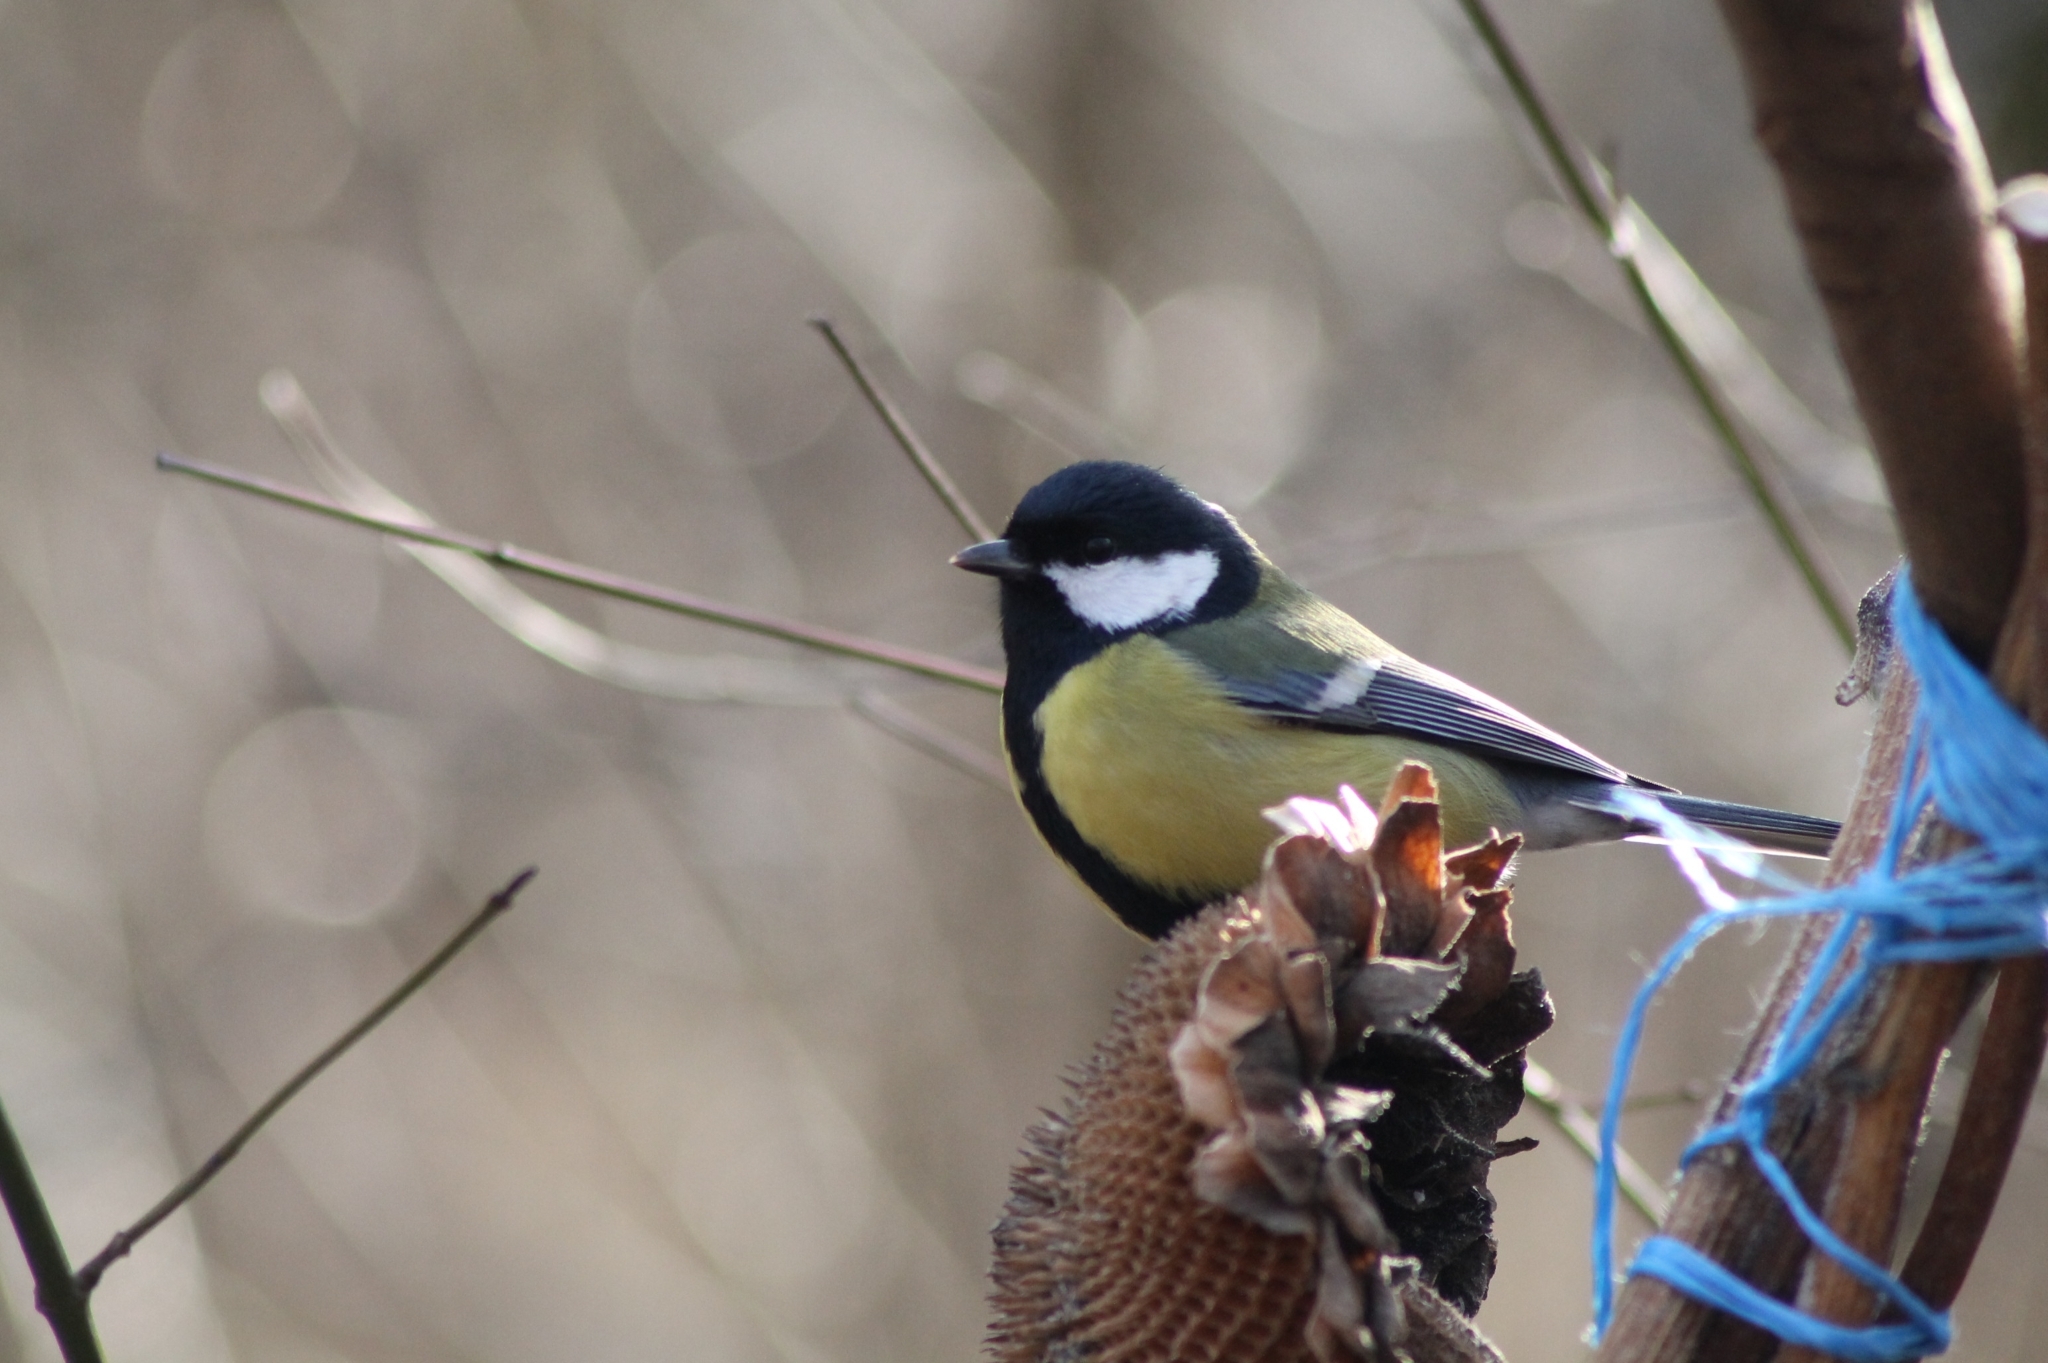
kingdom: Animalia
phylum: Chordata
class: Aves
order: Passeriformes
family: Paridae
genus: Parus
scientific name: Parus major
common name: Great tit
